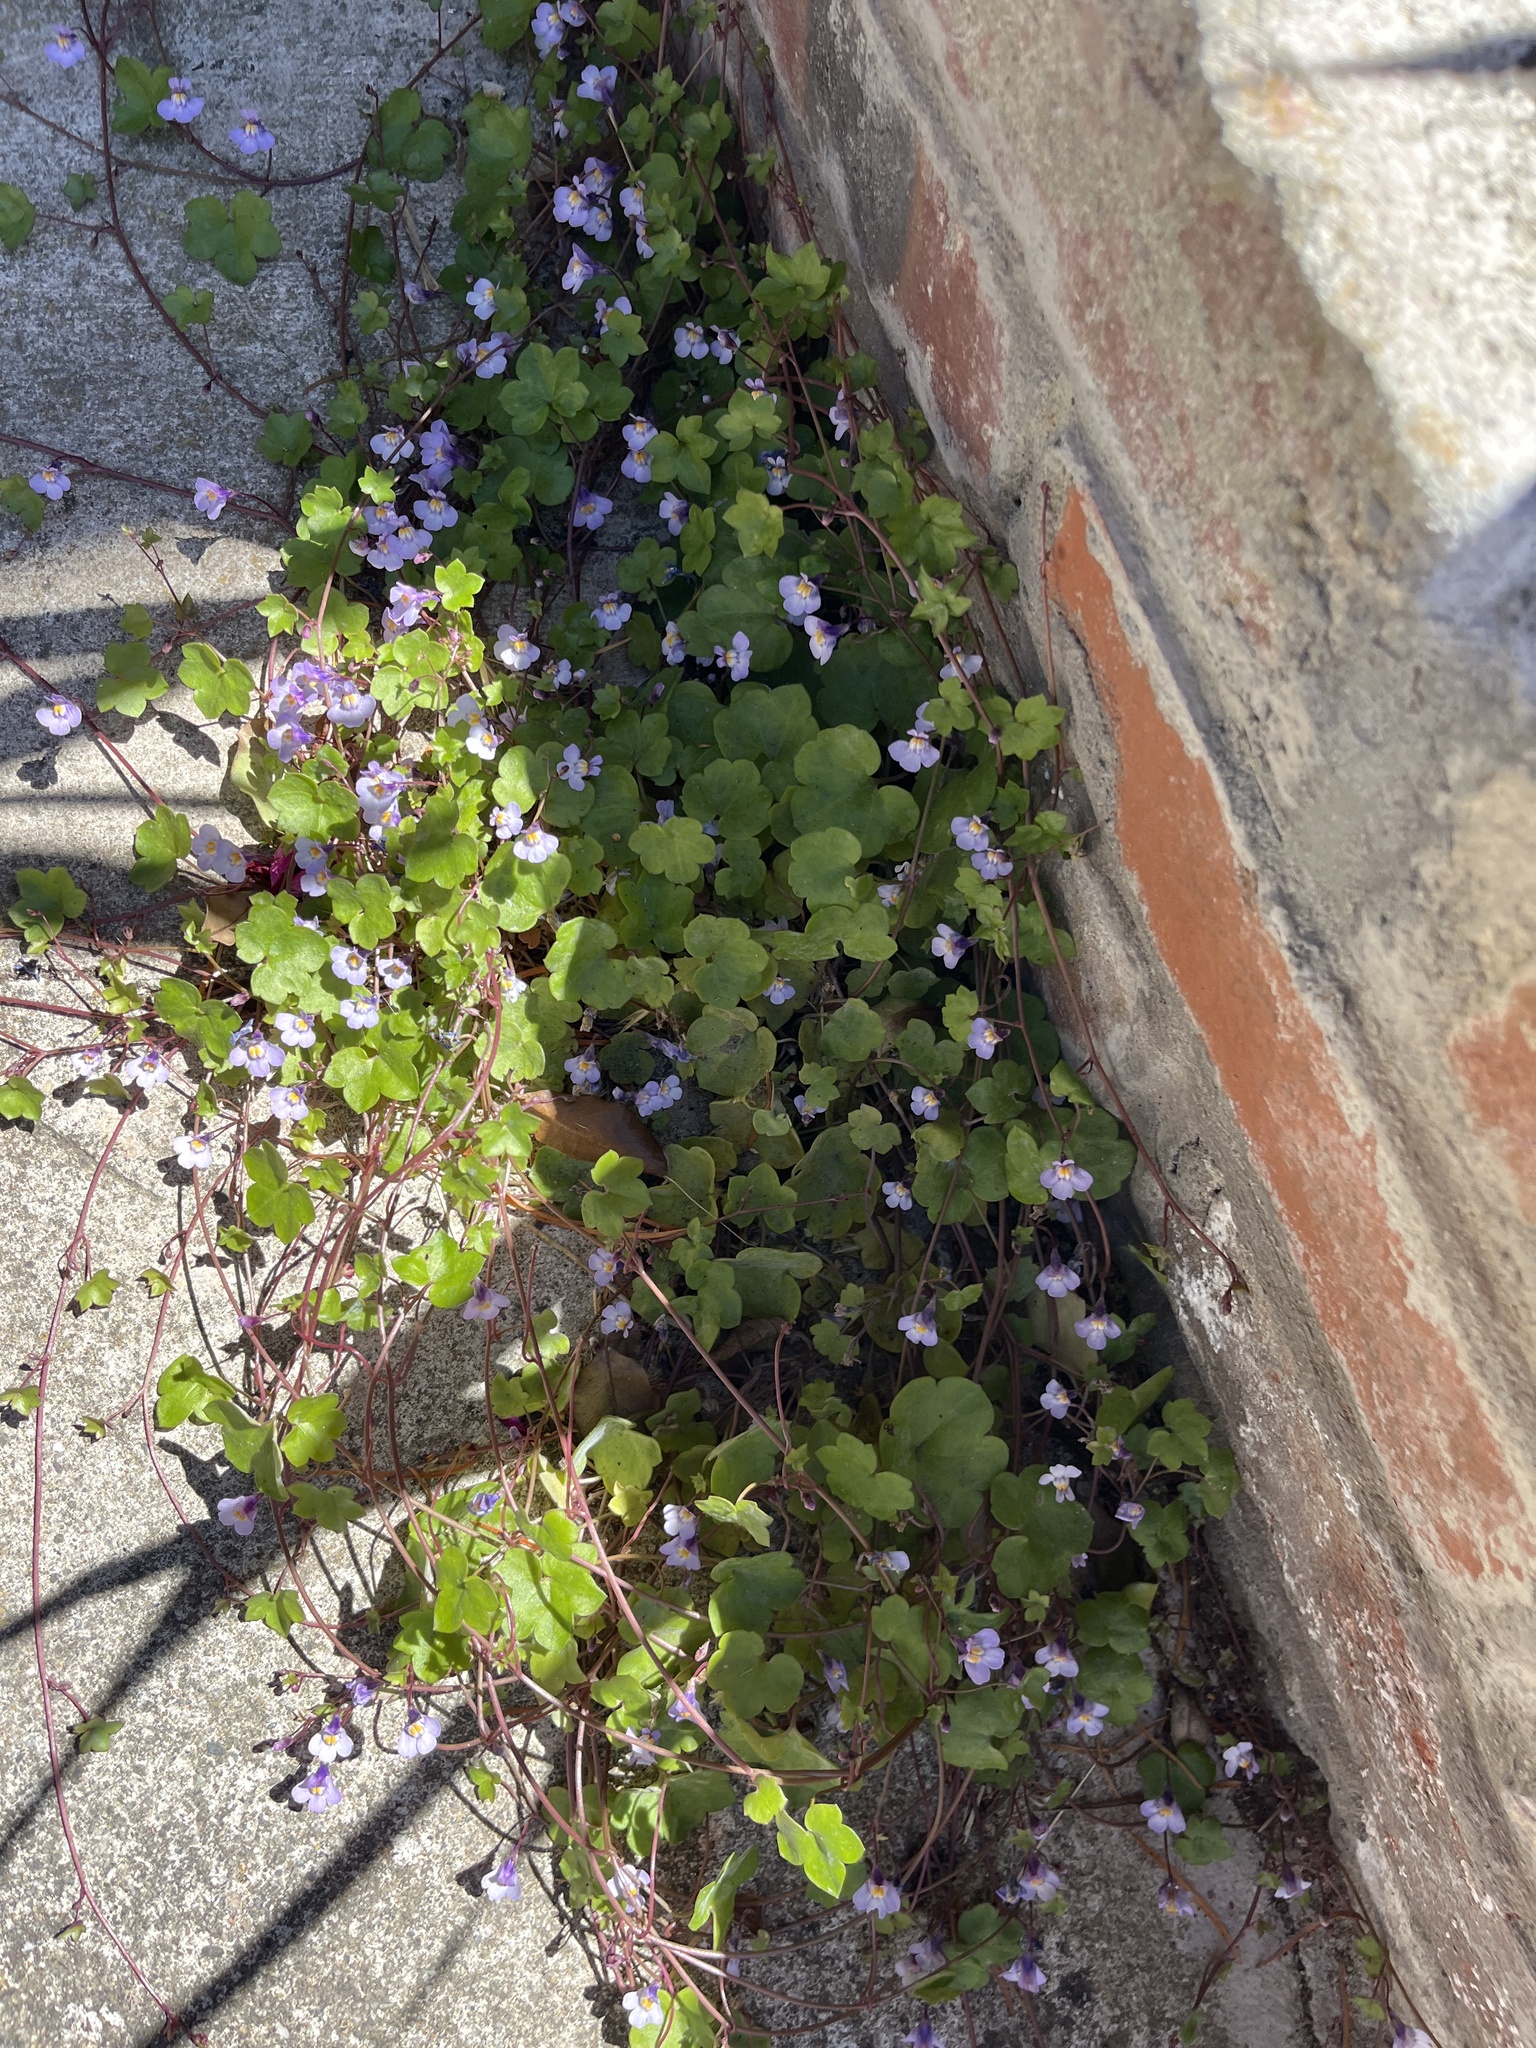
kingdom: Plantae
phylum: Tracheophyta
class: Magnoliopsida
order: Lamiales
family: Plantaginaceae
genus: Cymbalaria
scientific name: Cymbalaria muralis
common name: Ivy-leaved toadflax
